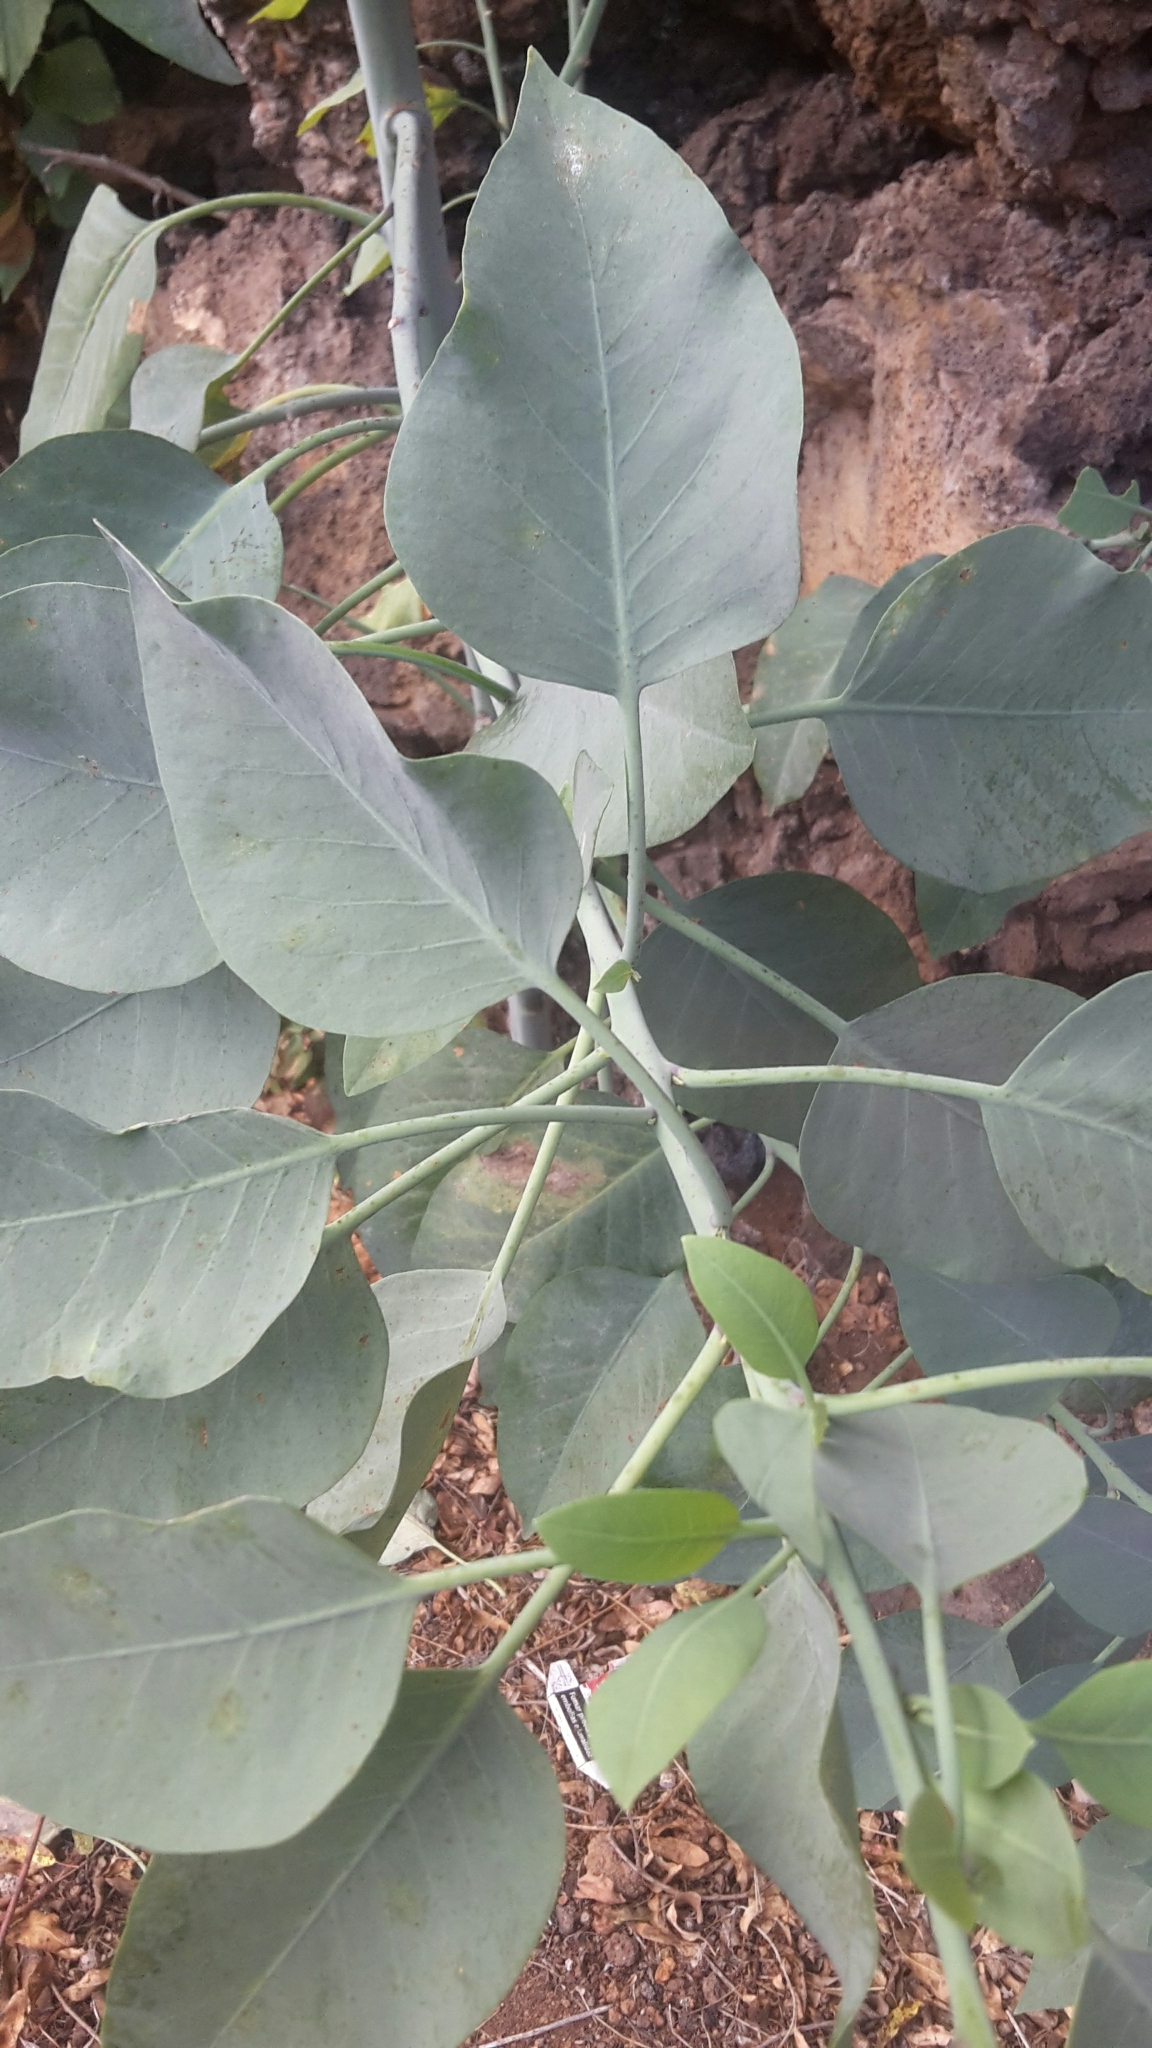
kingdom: Plantae
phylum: Tracheophyta
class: Magnoliopsida
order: Solanales
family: Solanaceae
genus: Nicotiana
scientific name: Nicotiana glauca
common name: Tree tobacco
